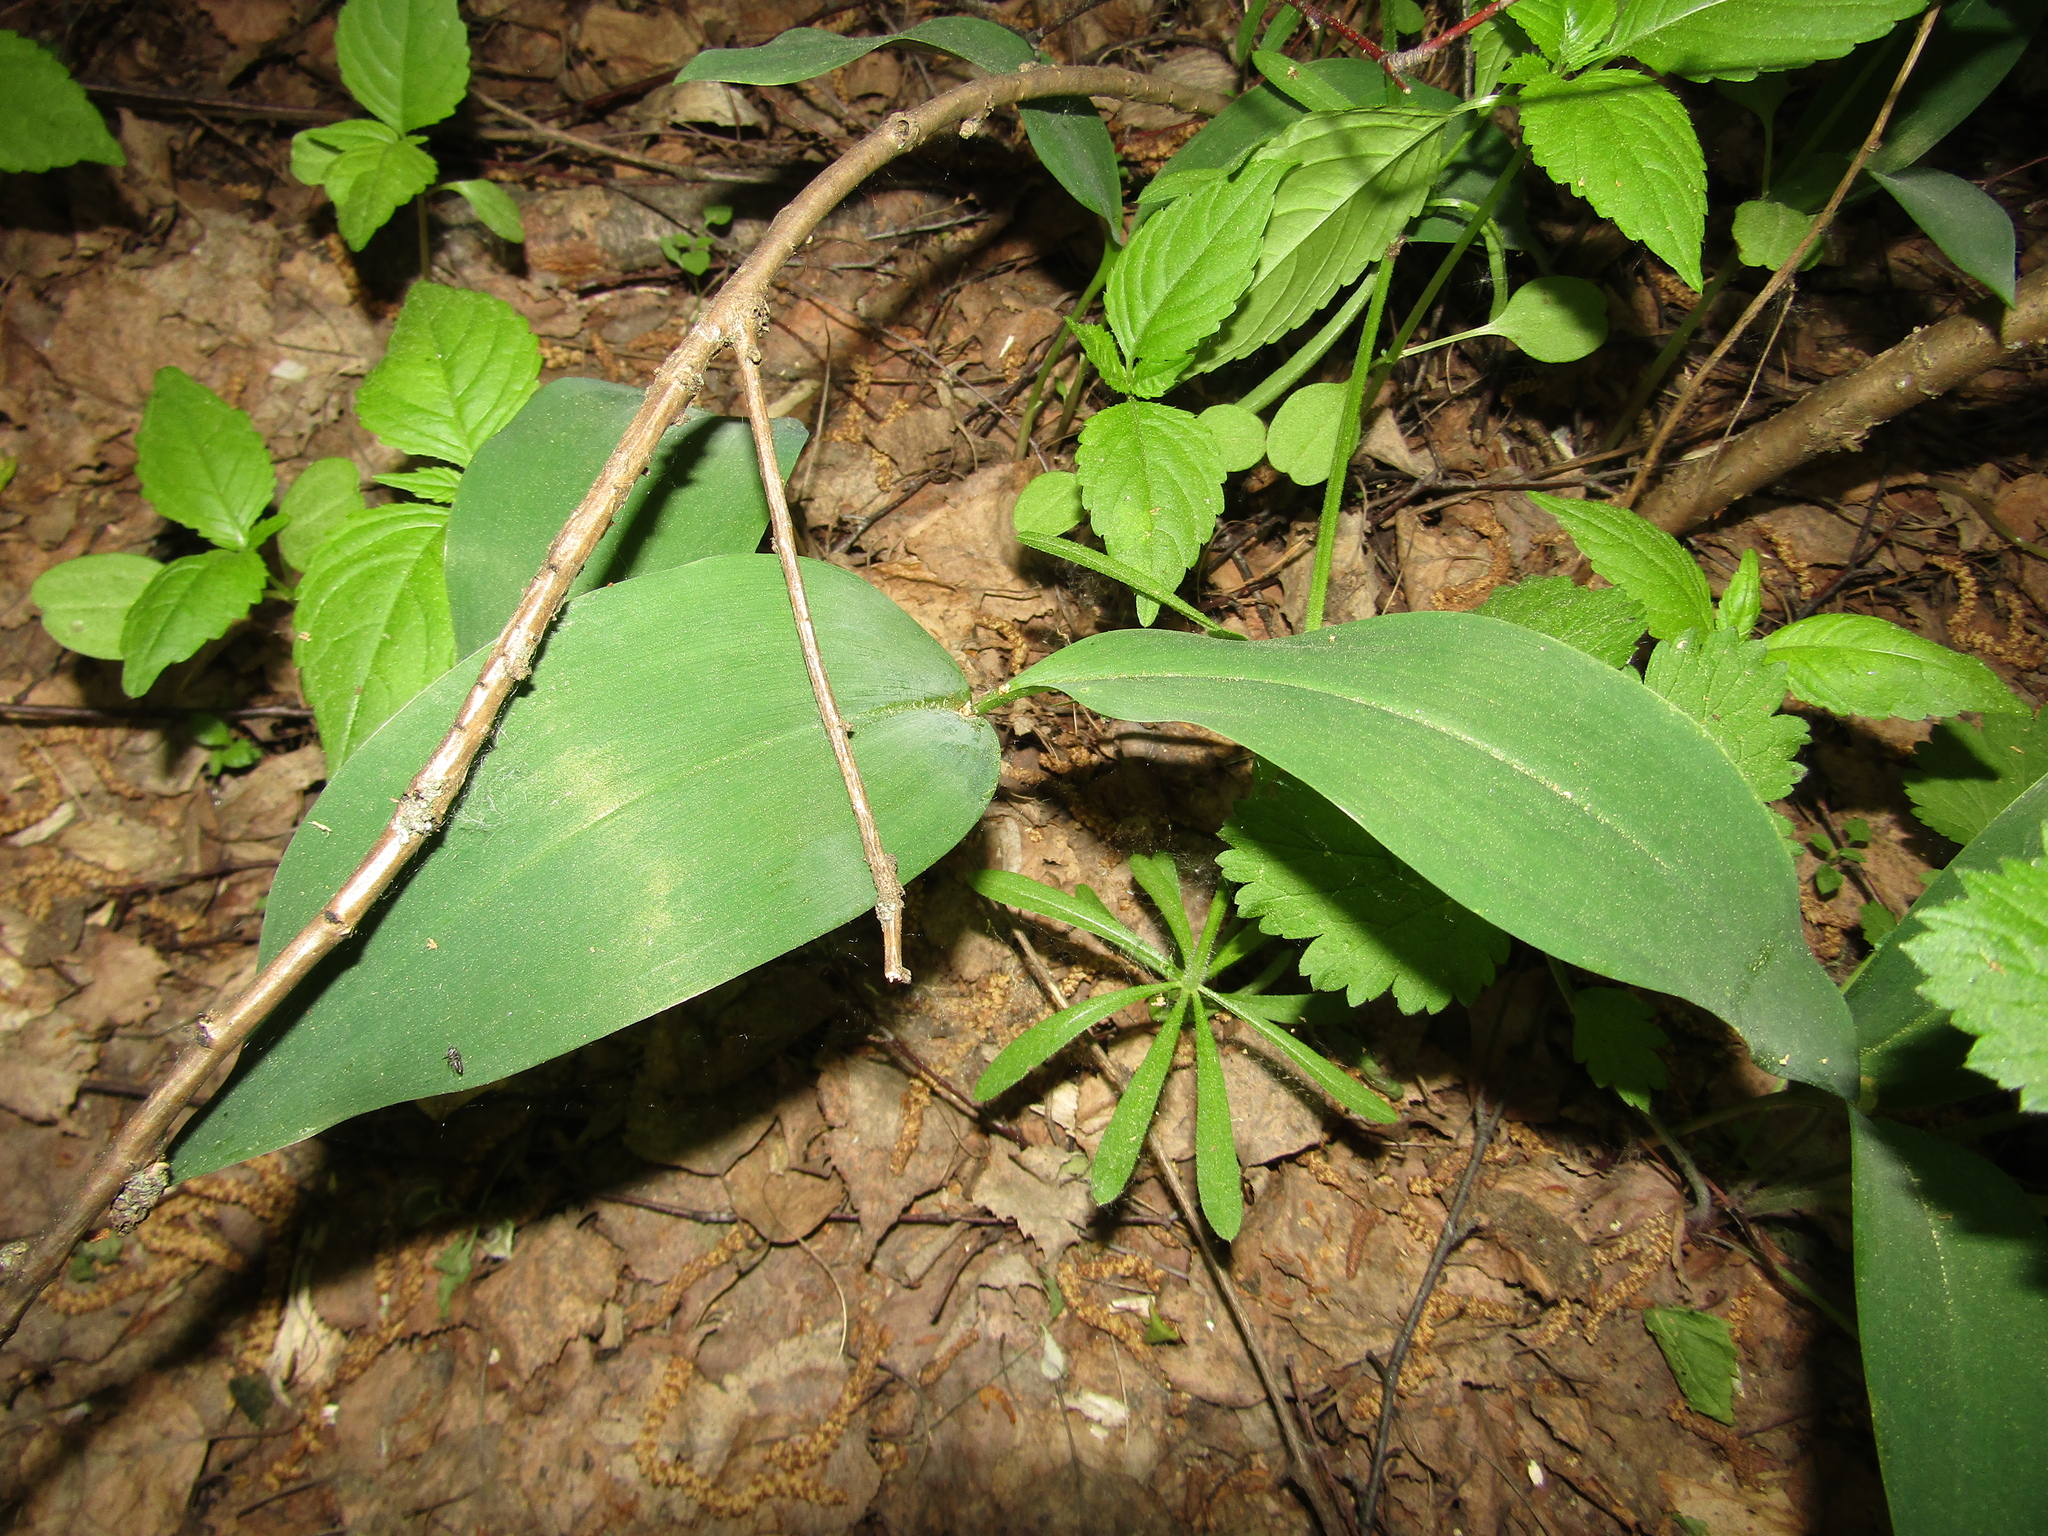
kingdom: Plantae
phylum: Tracheophyta
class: Liliopsida
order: Asparagales
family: Asparagaceae
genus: Convallaria
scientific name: Convallaria majalis
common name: Lily-of-the-valley
